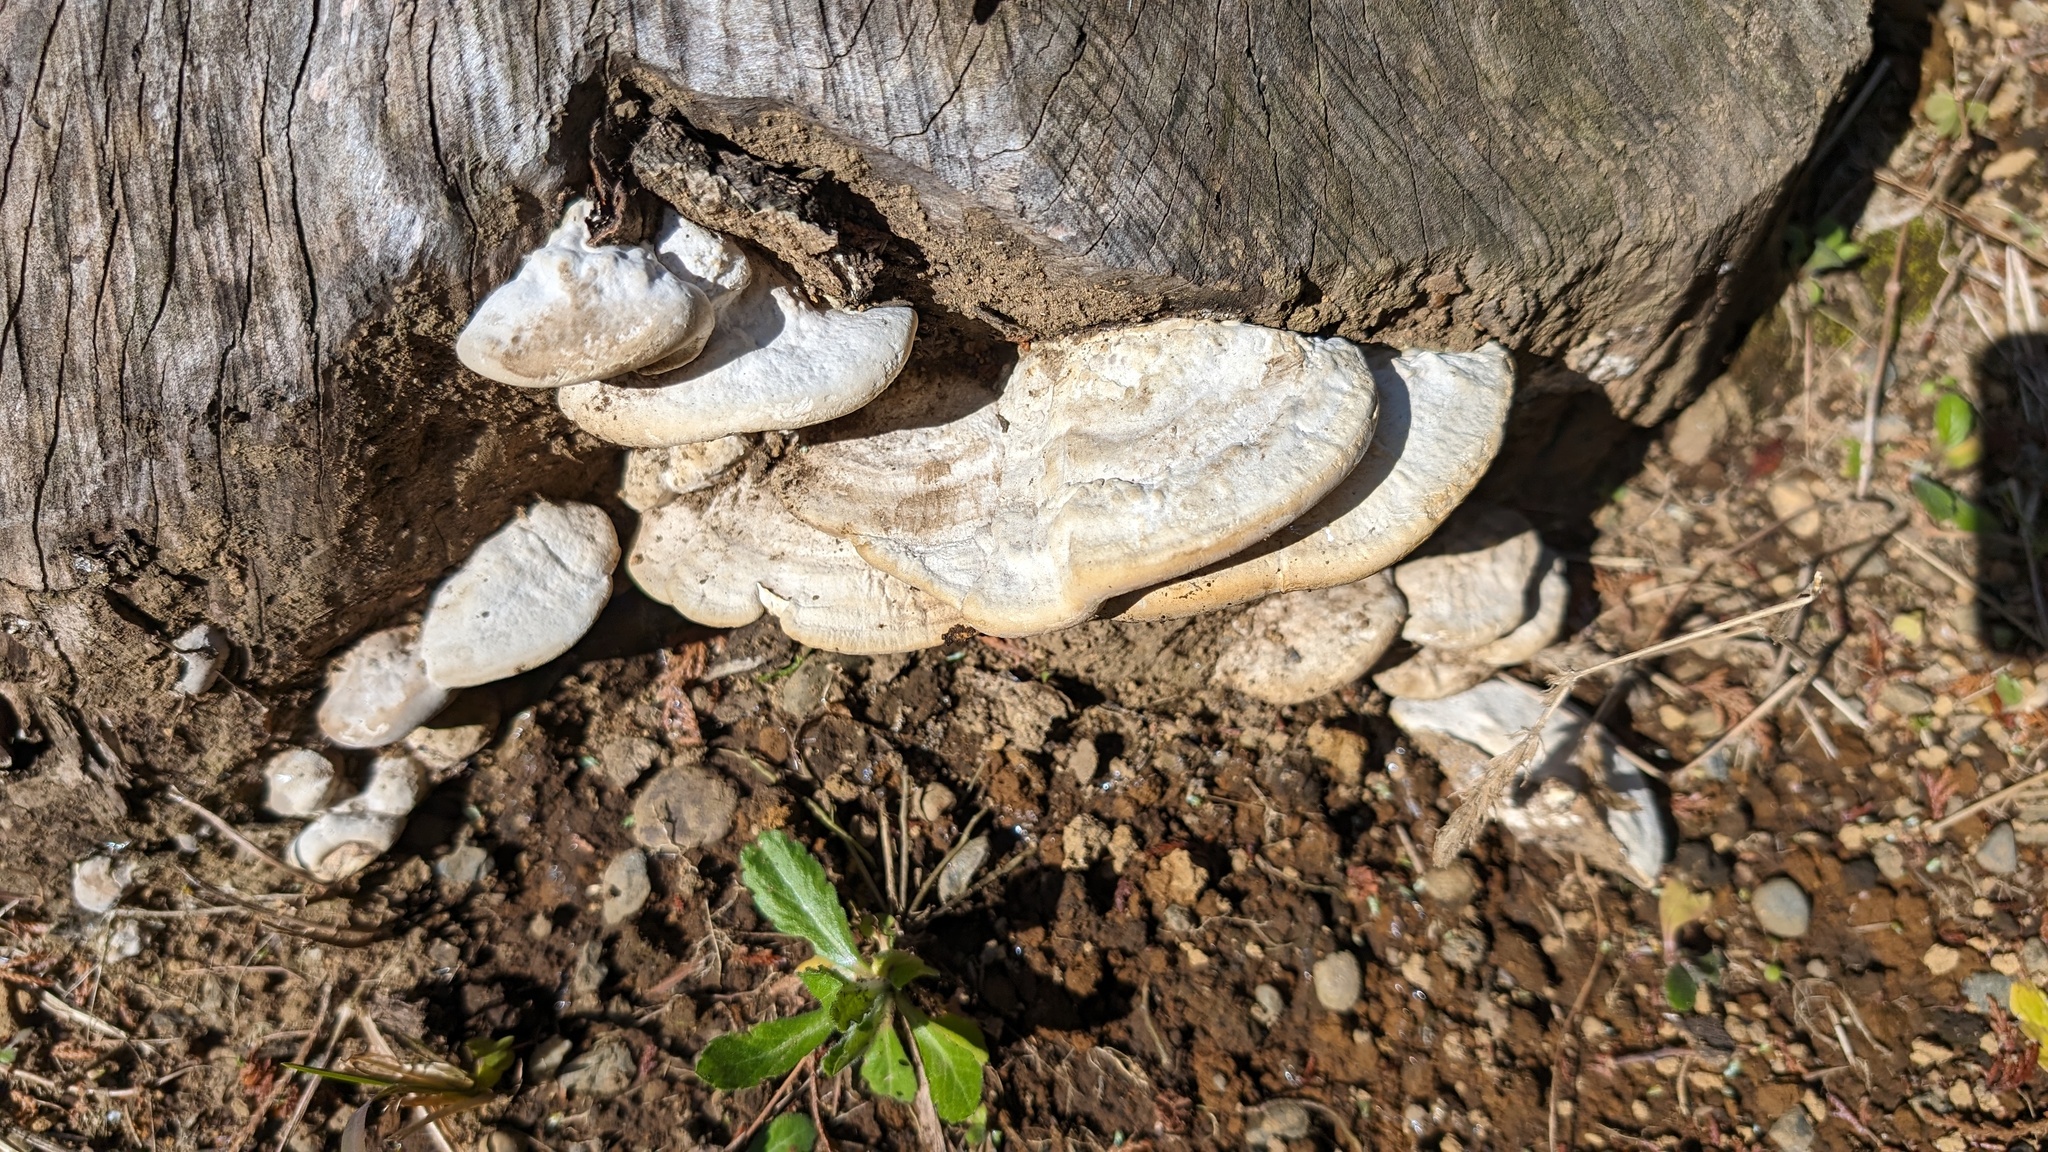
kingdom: Fungi
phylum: Basidiomycota
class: Agaricomycetes
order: Polyporales
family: Polyporaceae
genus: Trametes
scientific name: Trametes orientalis
